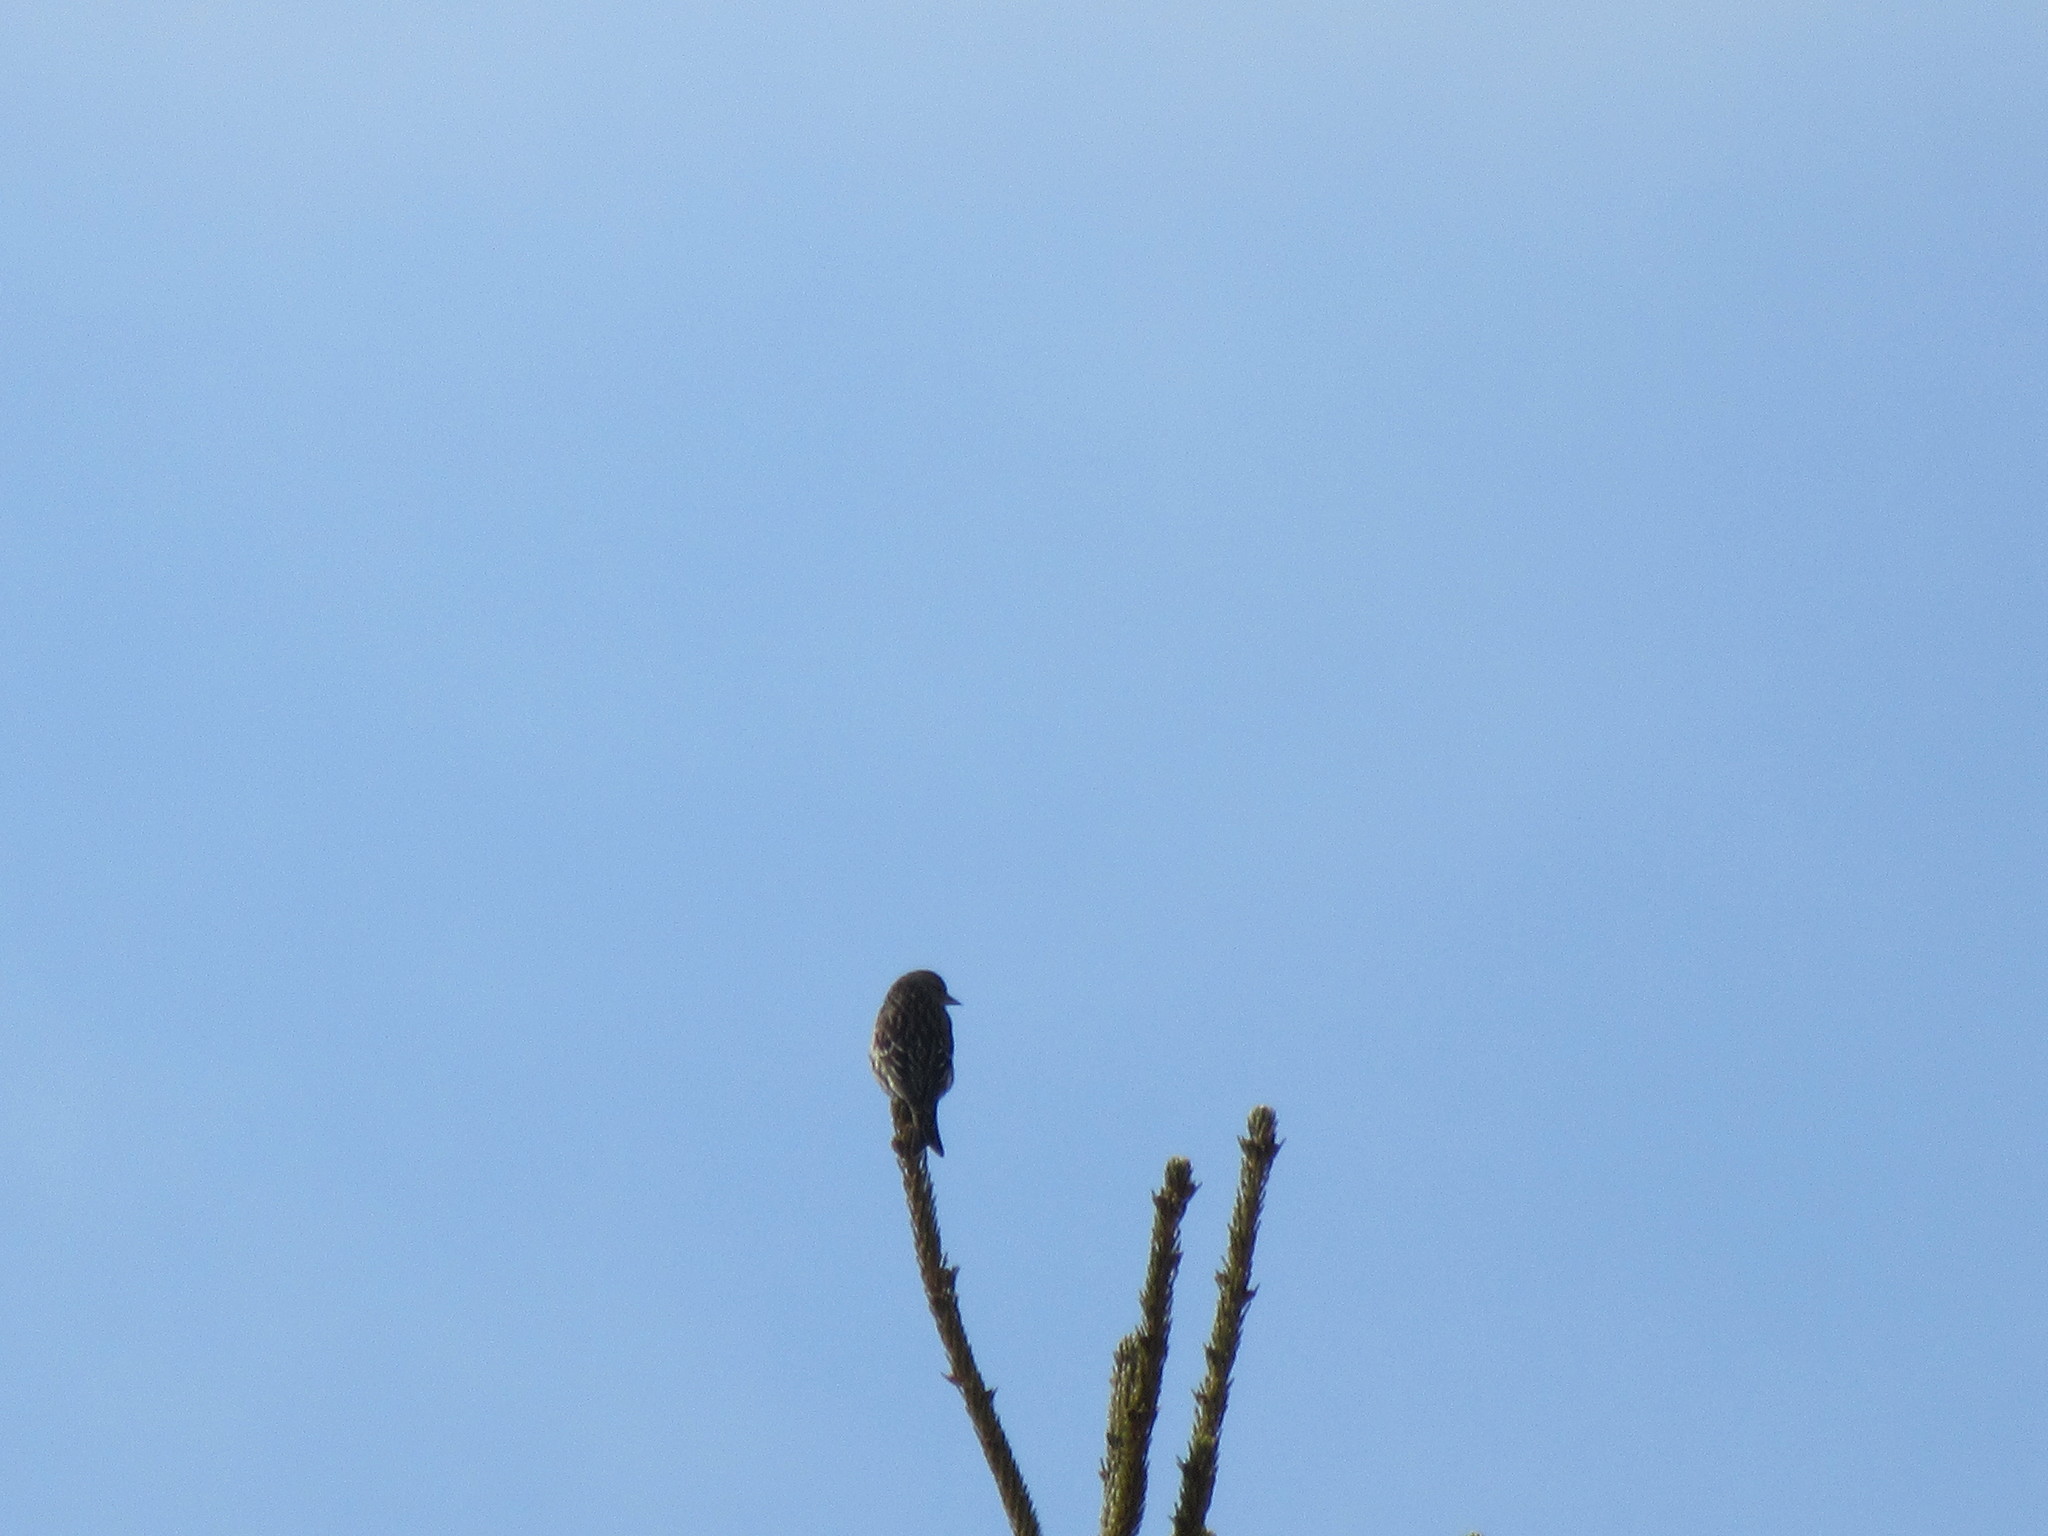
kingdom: Animalia
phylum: Chordata
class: Aves
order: Passeriformes
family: Fringillidae
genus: Spinus
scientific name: Spinus pinus
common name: Pine siskin
